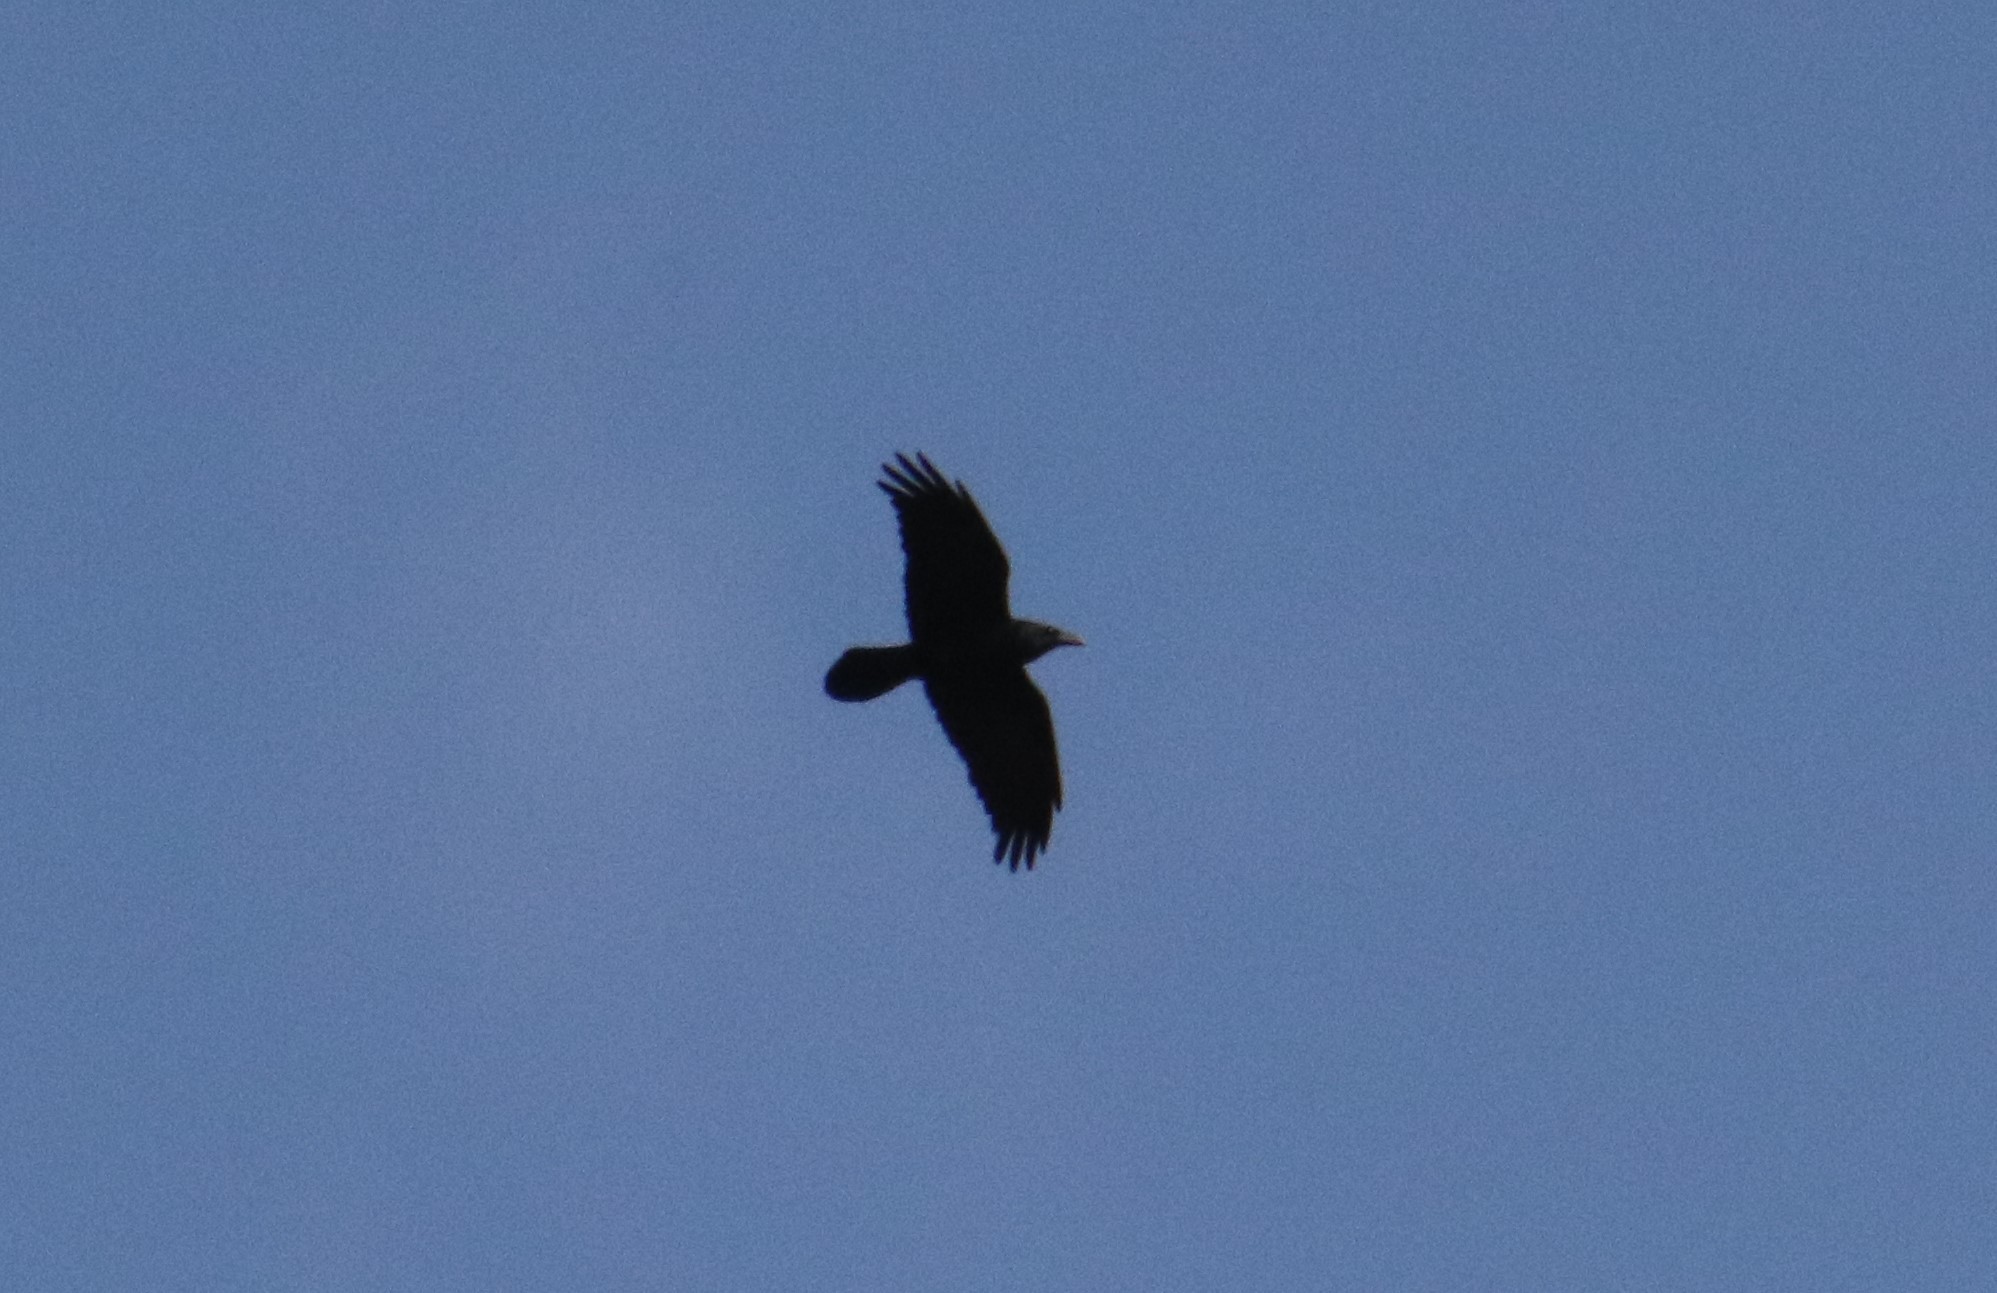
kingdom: Animalia
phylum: Chordata
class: Aves
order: Passeriformes
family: Corvidae
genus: Corvus
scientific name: Corvus corax
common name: Common raven
